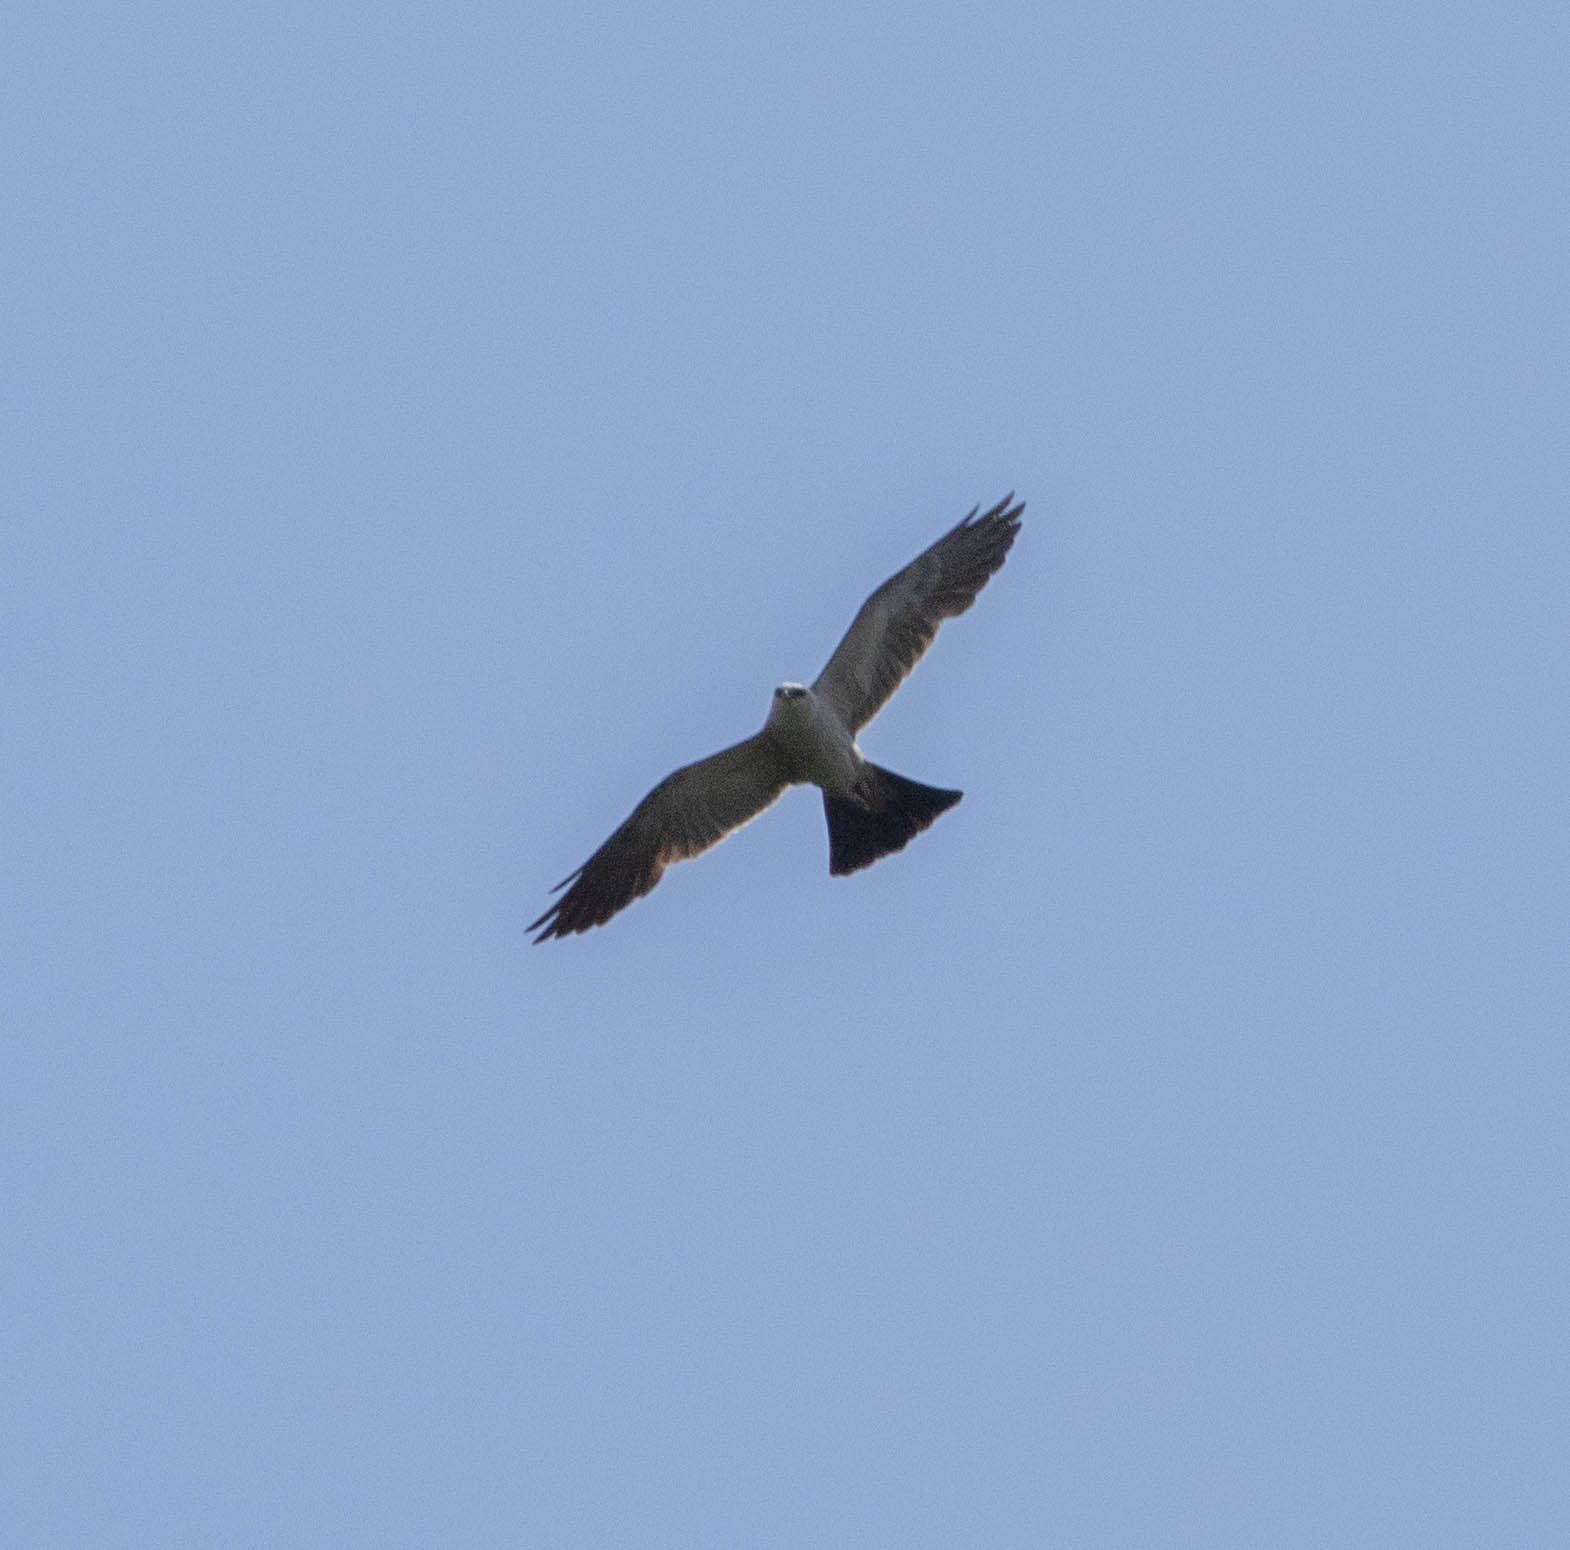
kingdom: Animalia
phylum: Chordata
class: Aves
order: Accipitriformes
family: Accipitridae
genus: Ictinia
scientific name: Ictinia mississippiensis
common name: Mississippi kite
